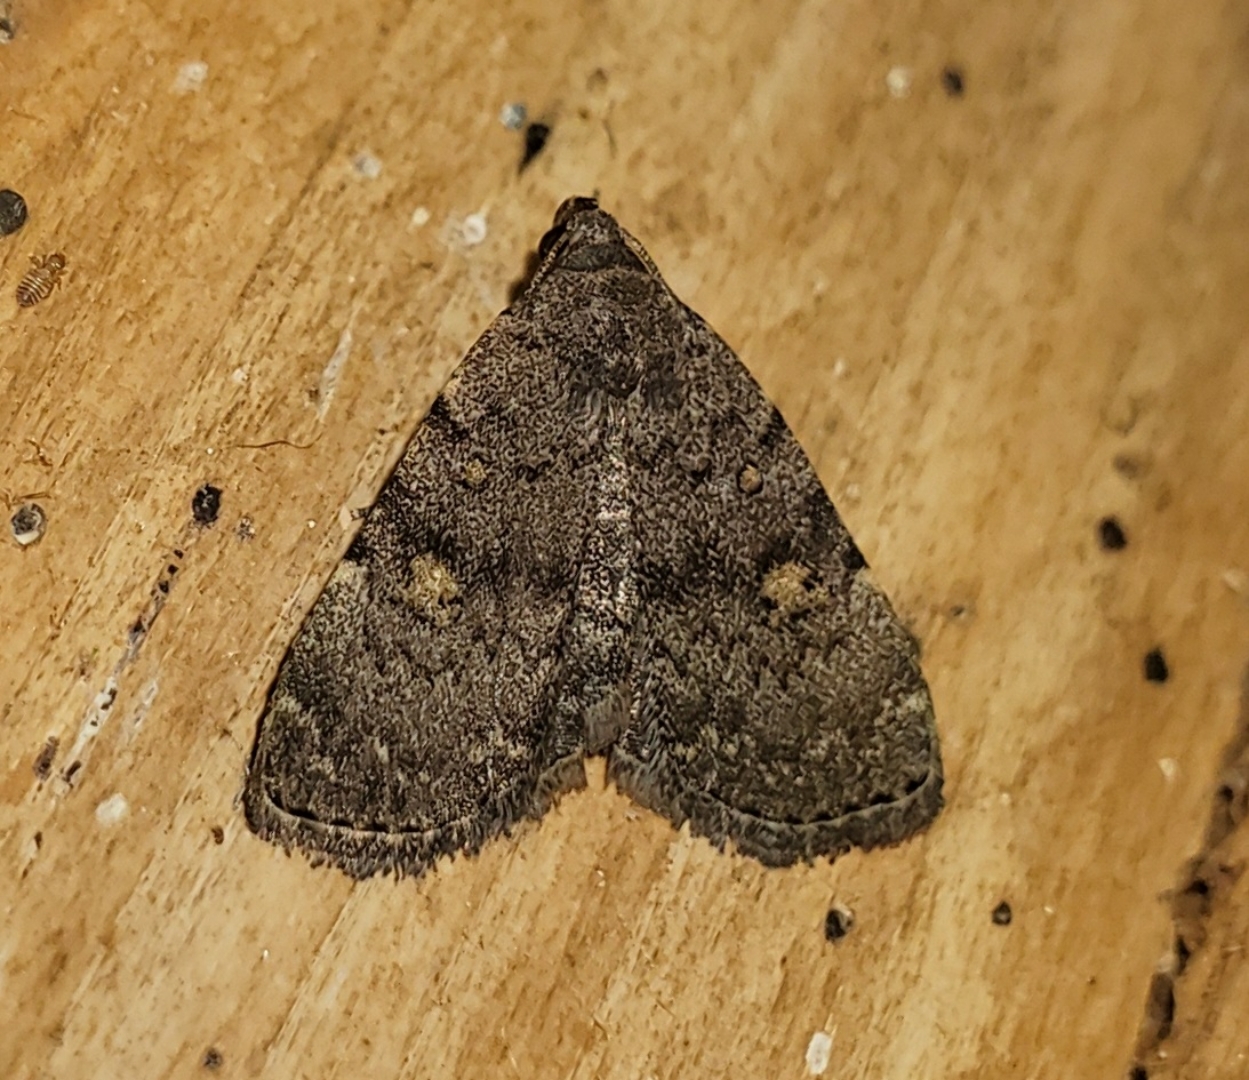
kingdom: Animalia
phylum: Arthropoda
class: Insecta
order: Lepidoptera
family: Erebidae
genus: Idia
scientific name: Idia aemula
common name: Common idia moth
